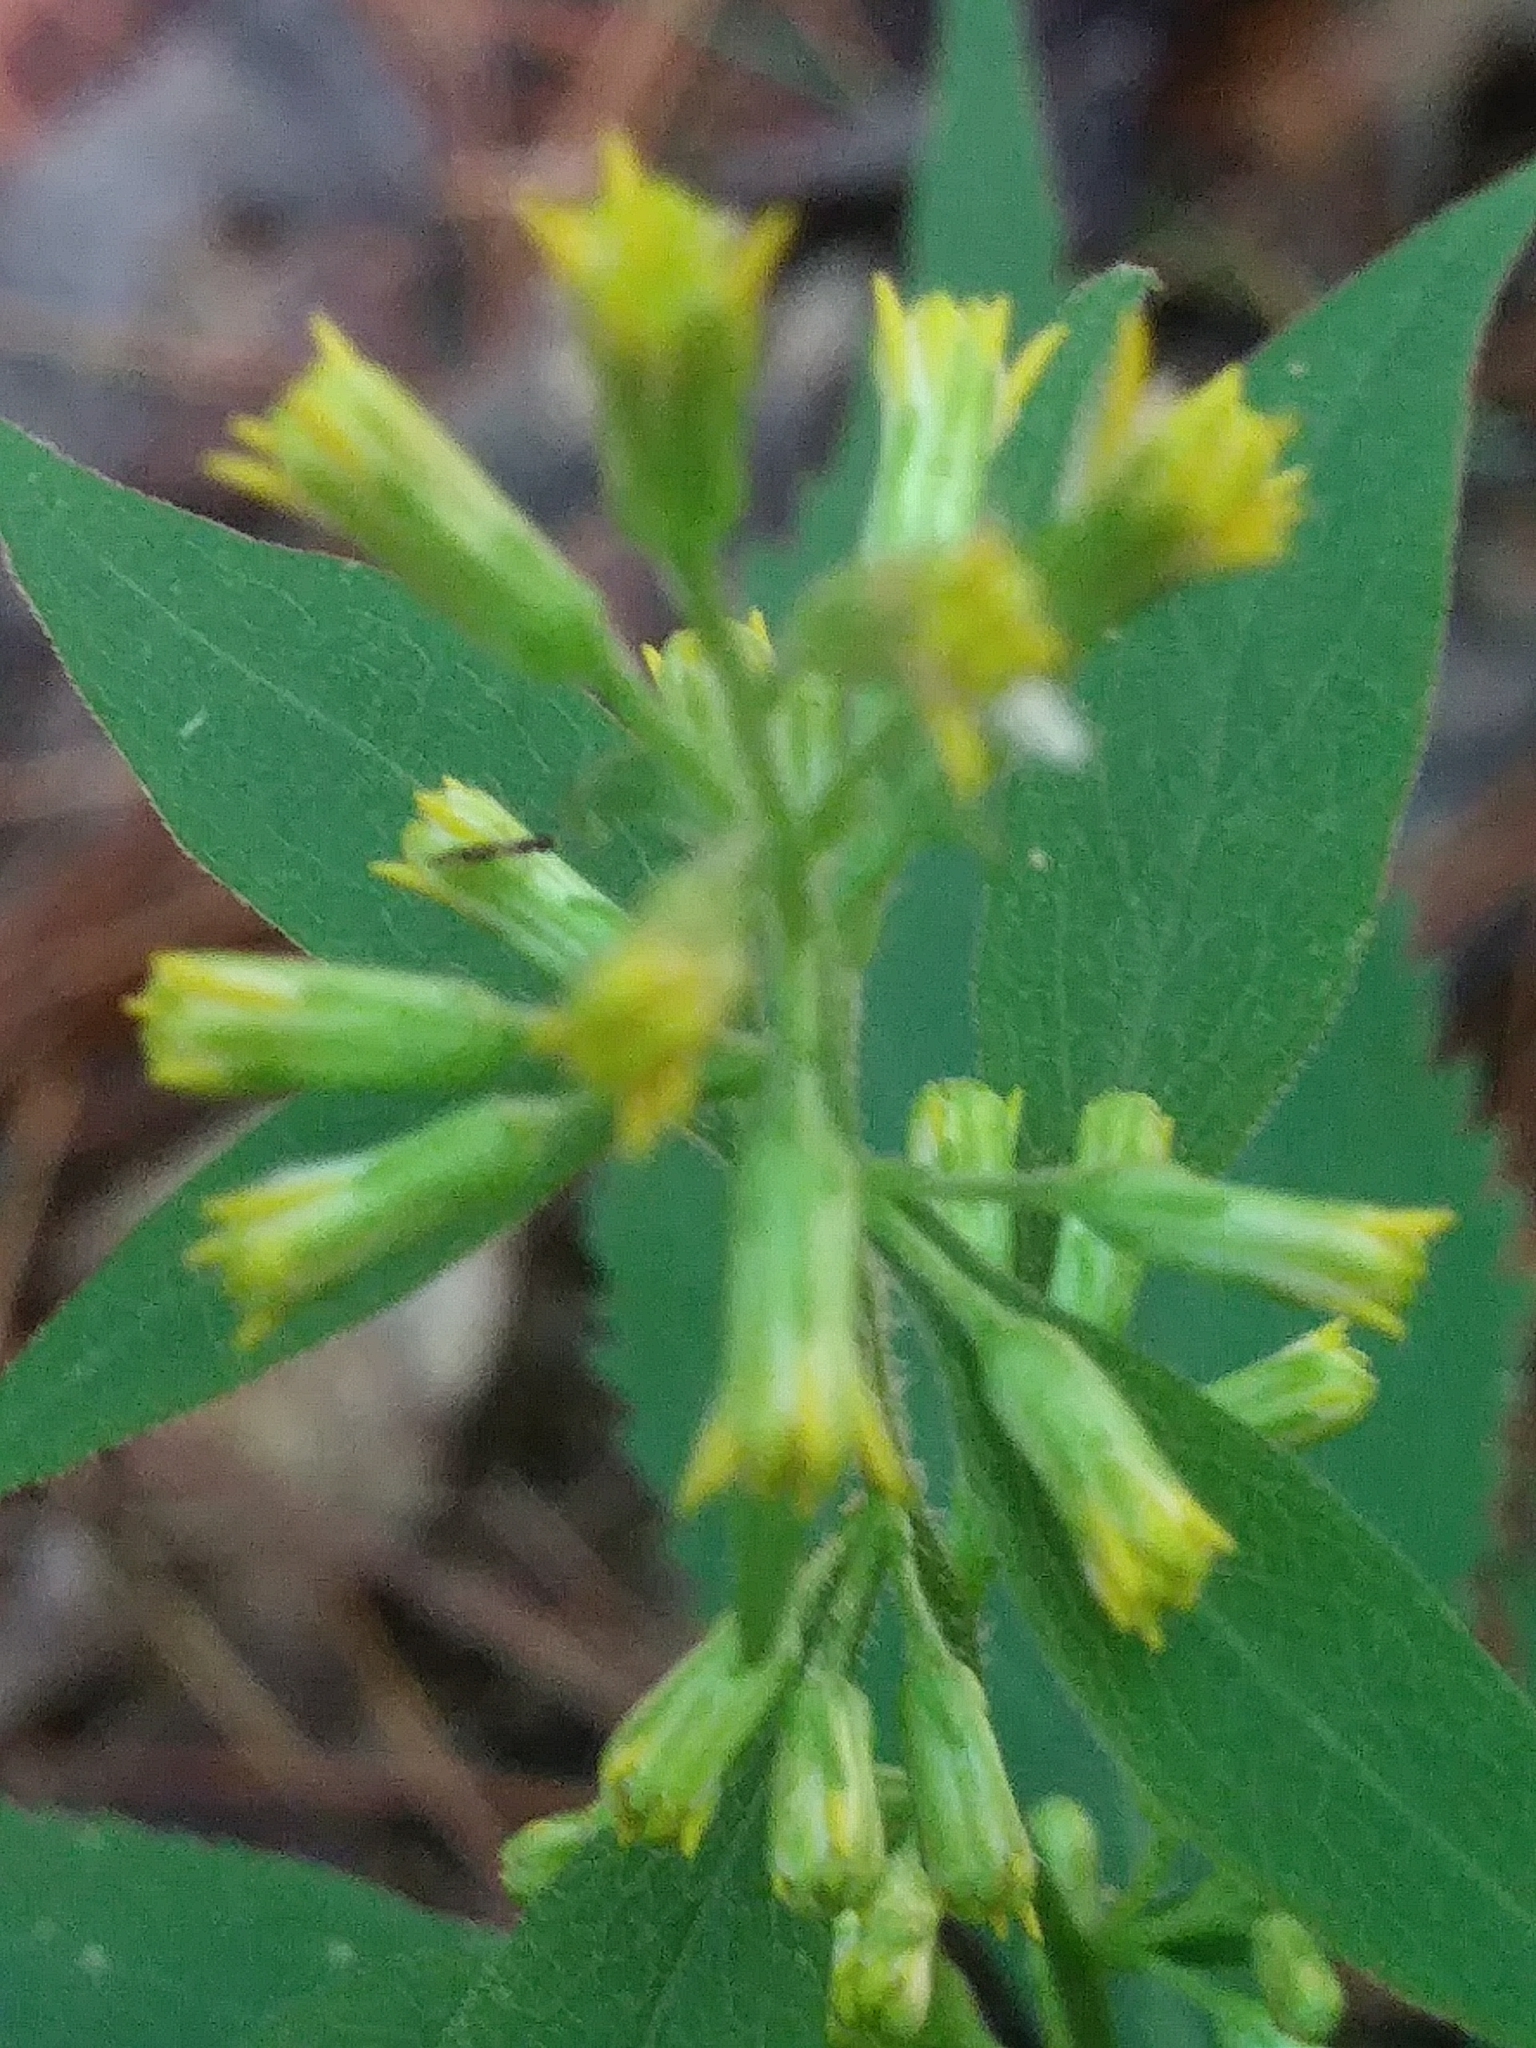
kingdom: Plantae
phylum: Tracheophyta
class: Magnoliopsida
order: Asterales
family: Asteraceae
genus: Solidago
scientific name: Solidago flexicaulis
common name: Zig-zag goldenrod
